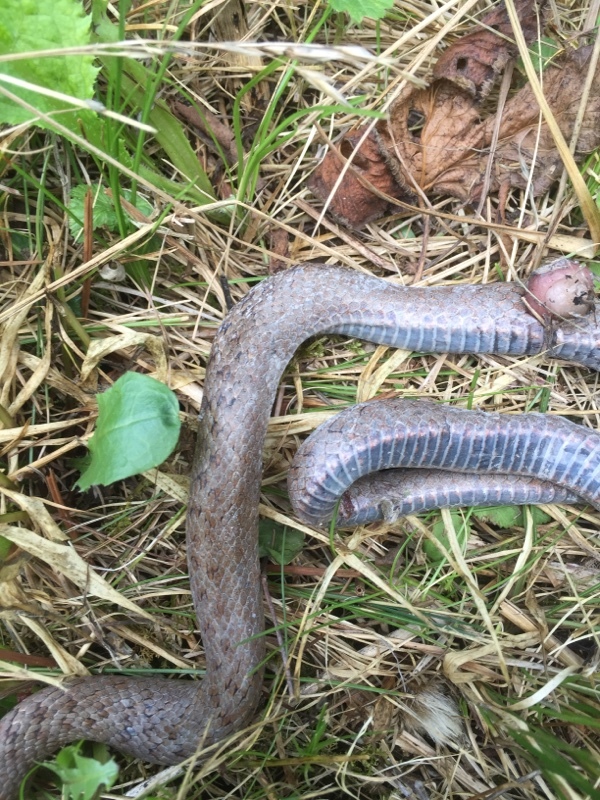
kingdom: Animalia
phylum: Chordata
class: Squamata
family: Colubridae
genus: Coronella
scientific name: Coronella austriaca
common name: Smooth snake
